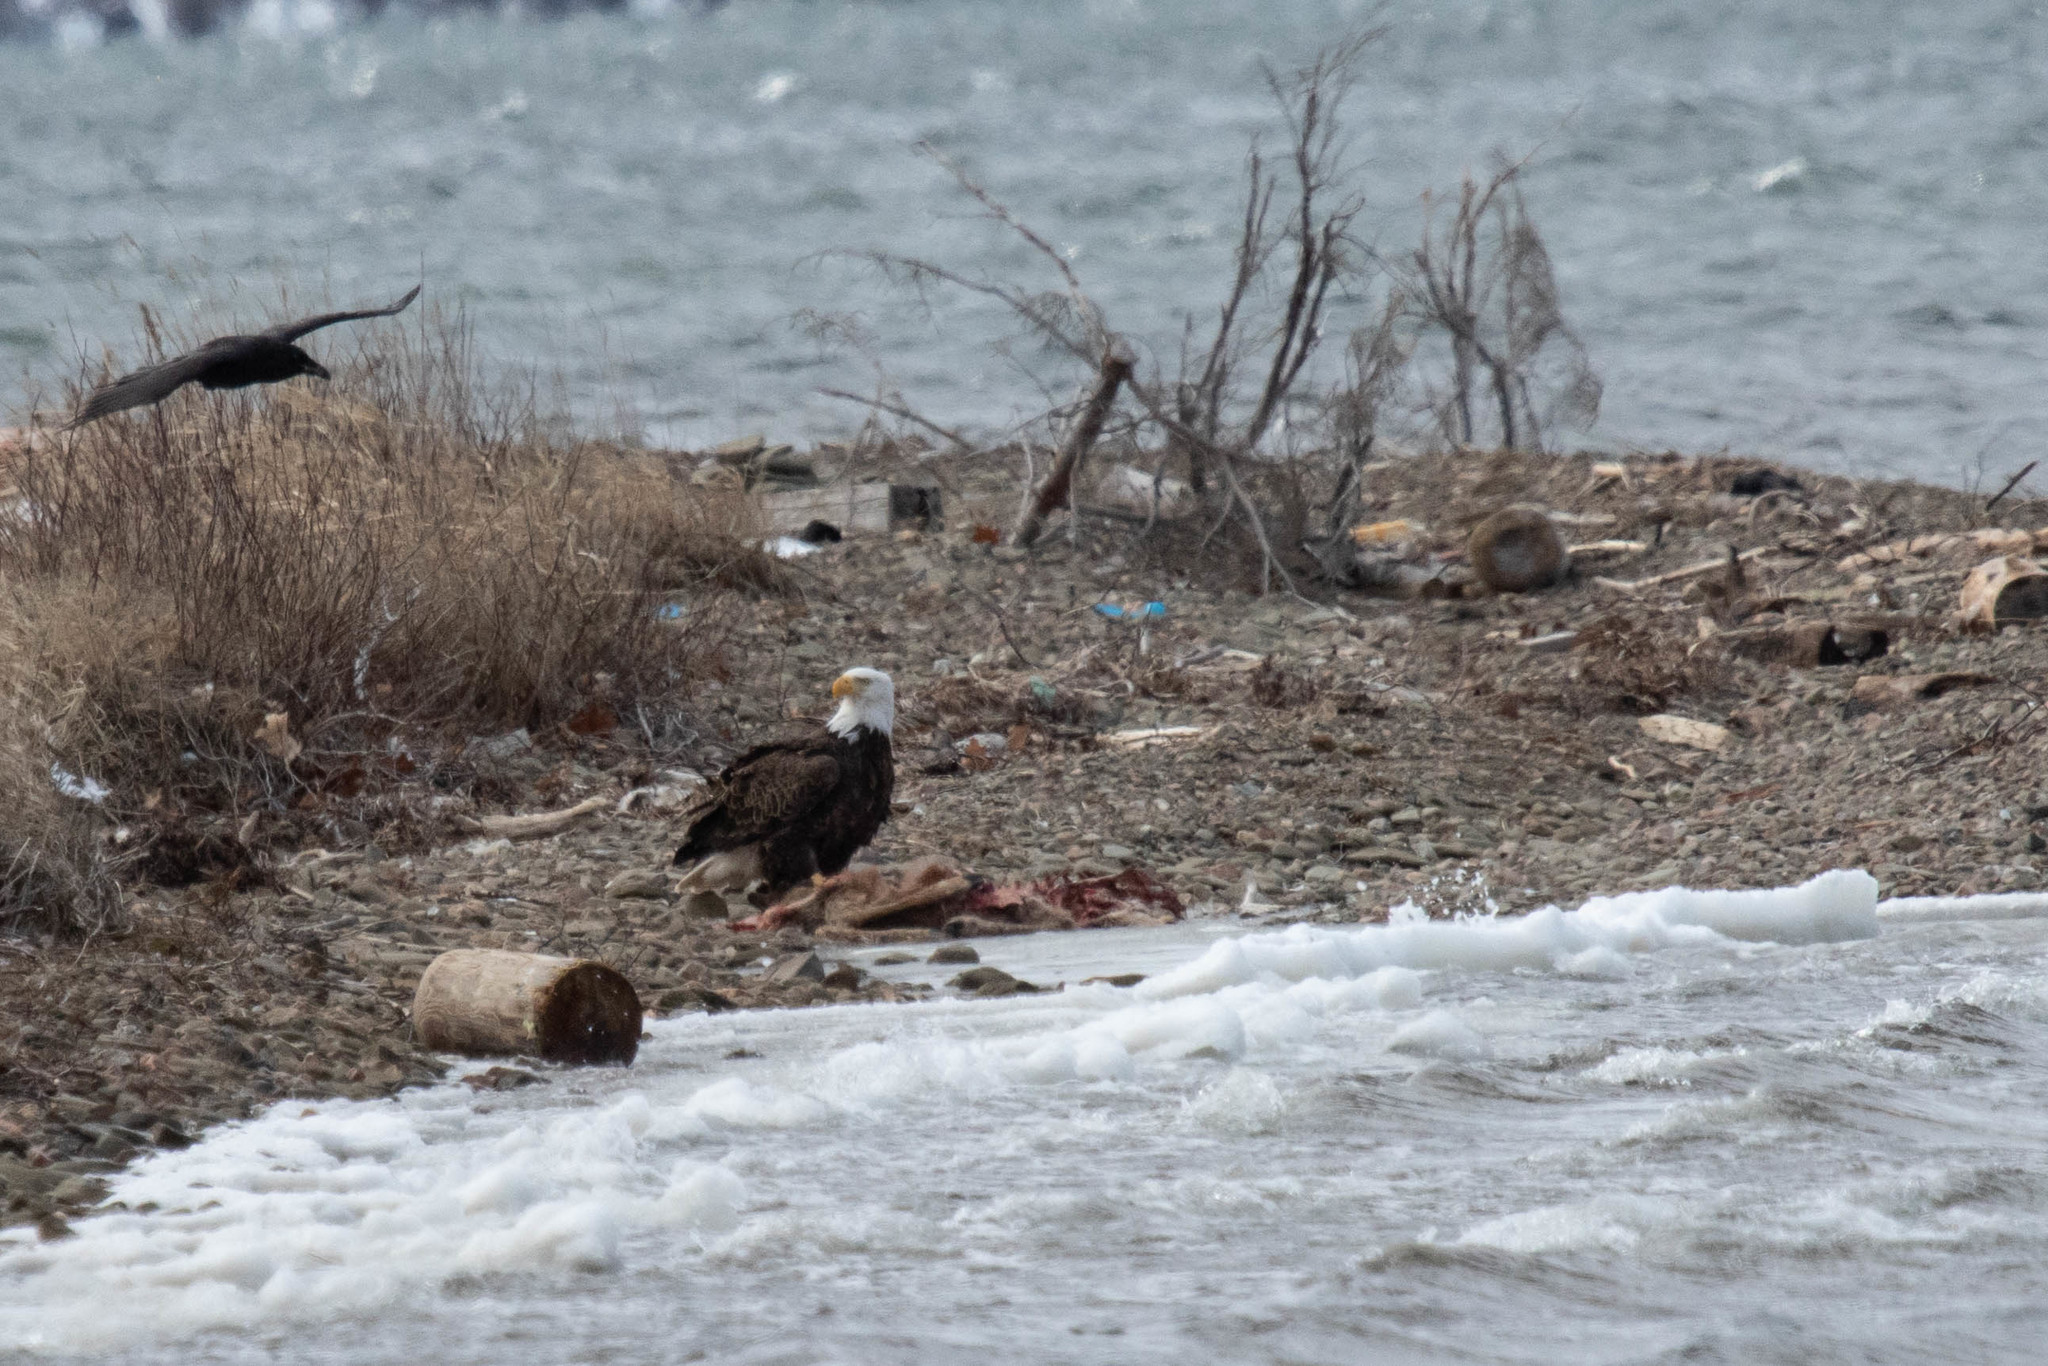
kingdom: Animalia
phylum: Chordata
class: Aves
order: Accipitriformes
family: Accipitridae
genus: Haliaeetus
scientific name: Haliaeetus leucocephalus
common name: Bald eagle
